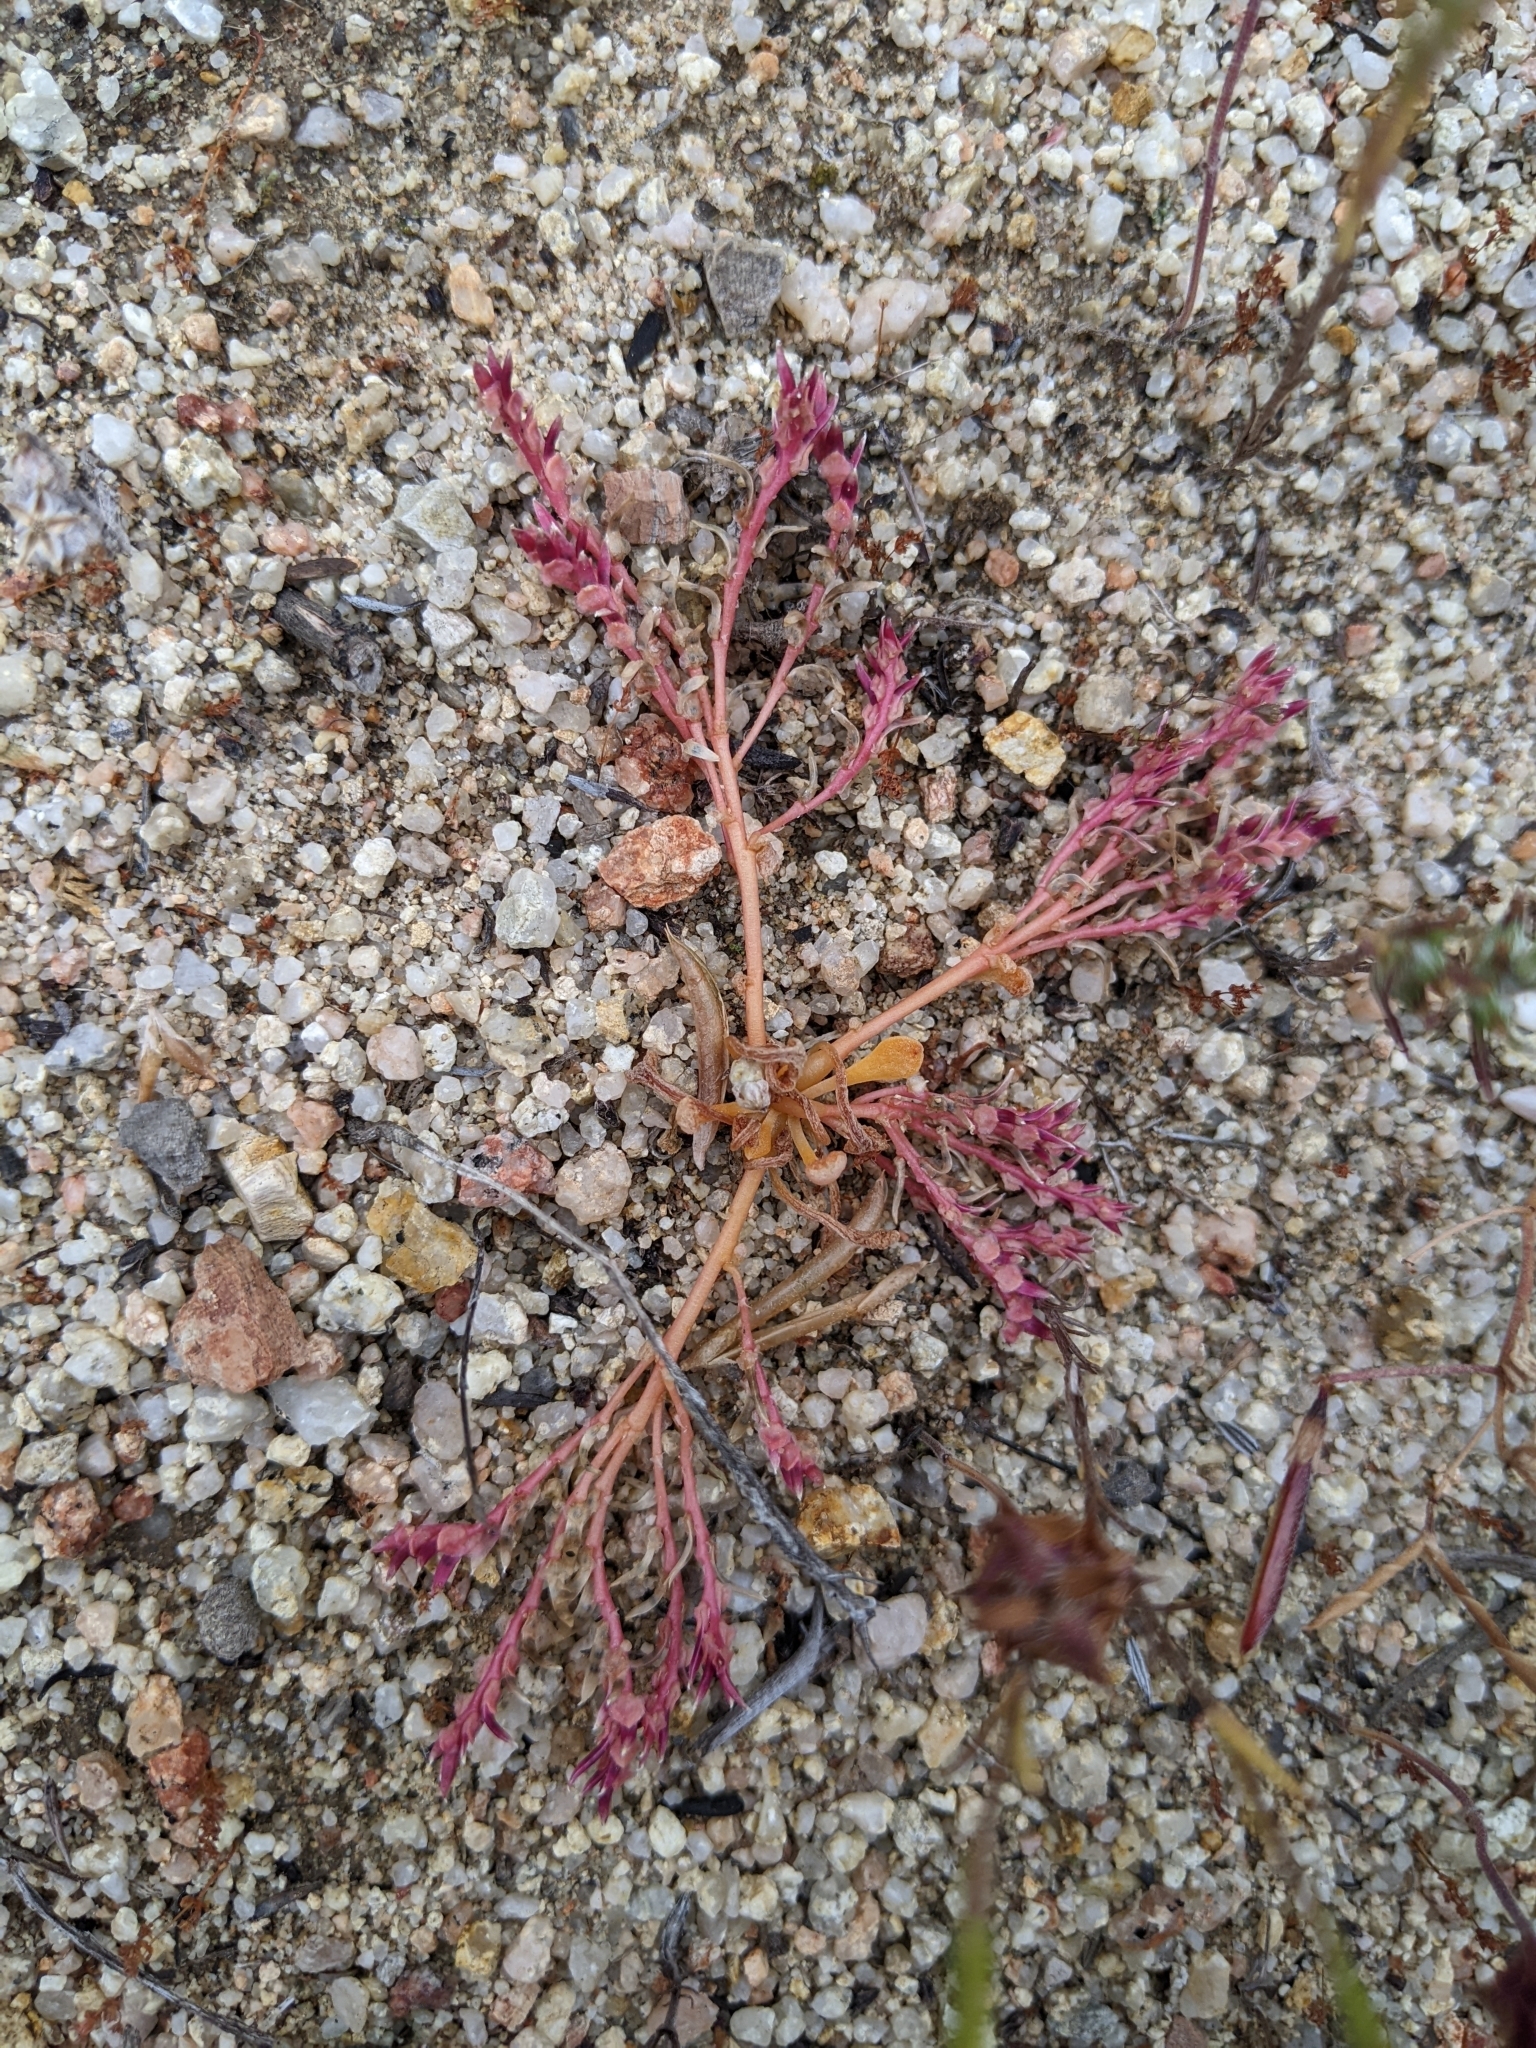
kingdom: Plantae
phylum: Tracheophyta
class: Magnoliopsida
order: Caryophyllales
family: Montiaceae
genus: Calyptridium
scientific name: Calyptridium monandrum
